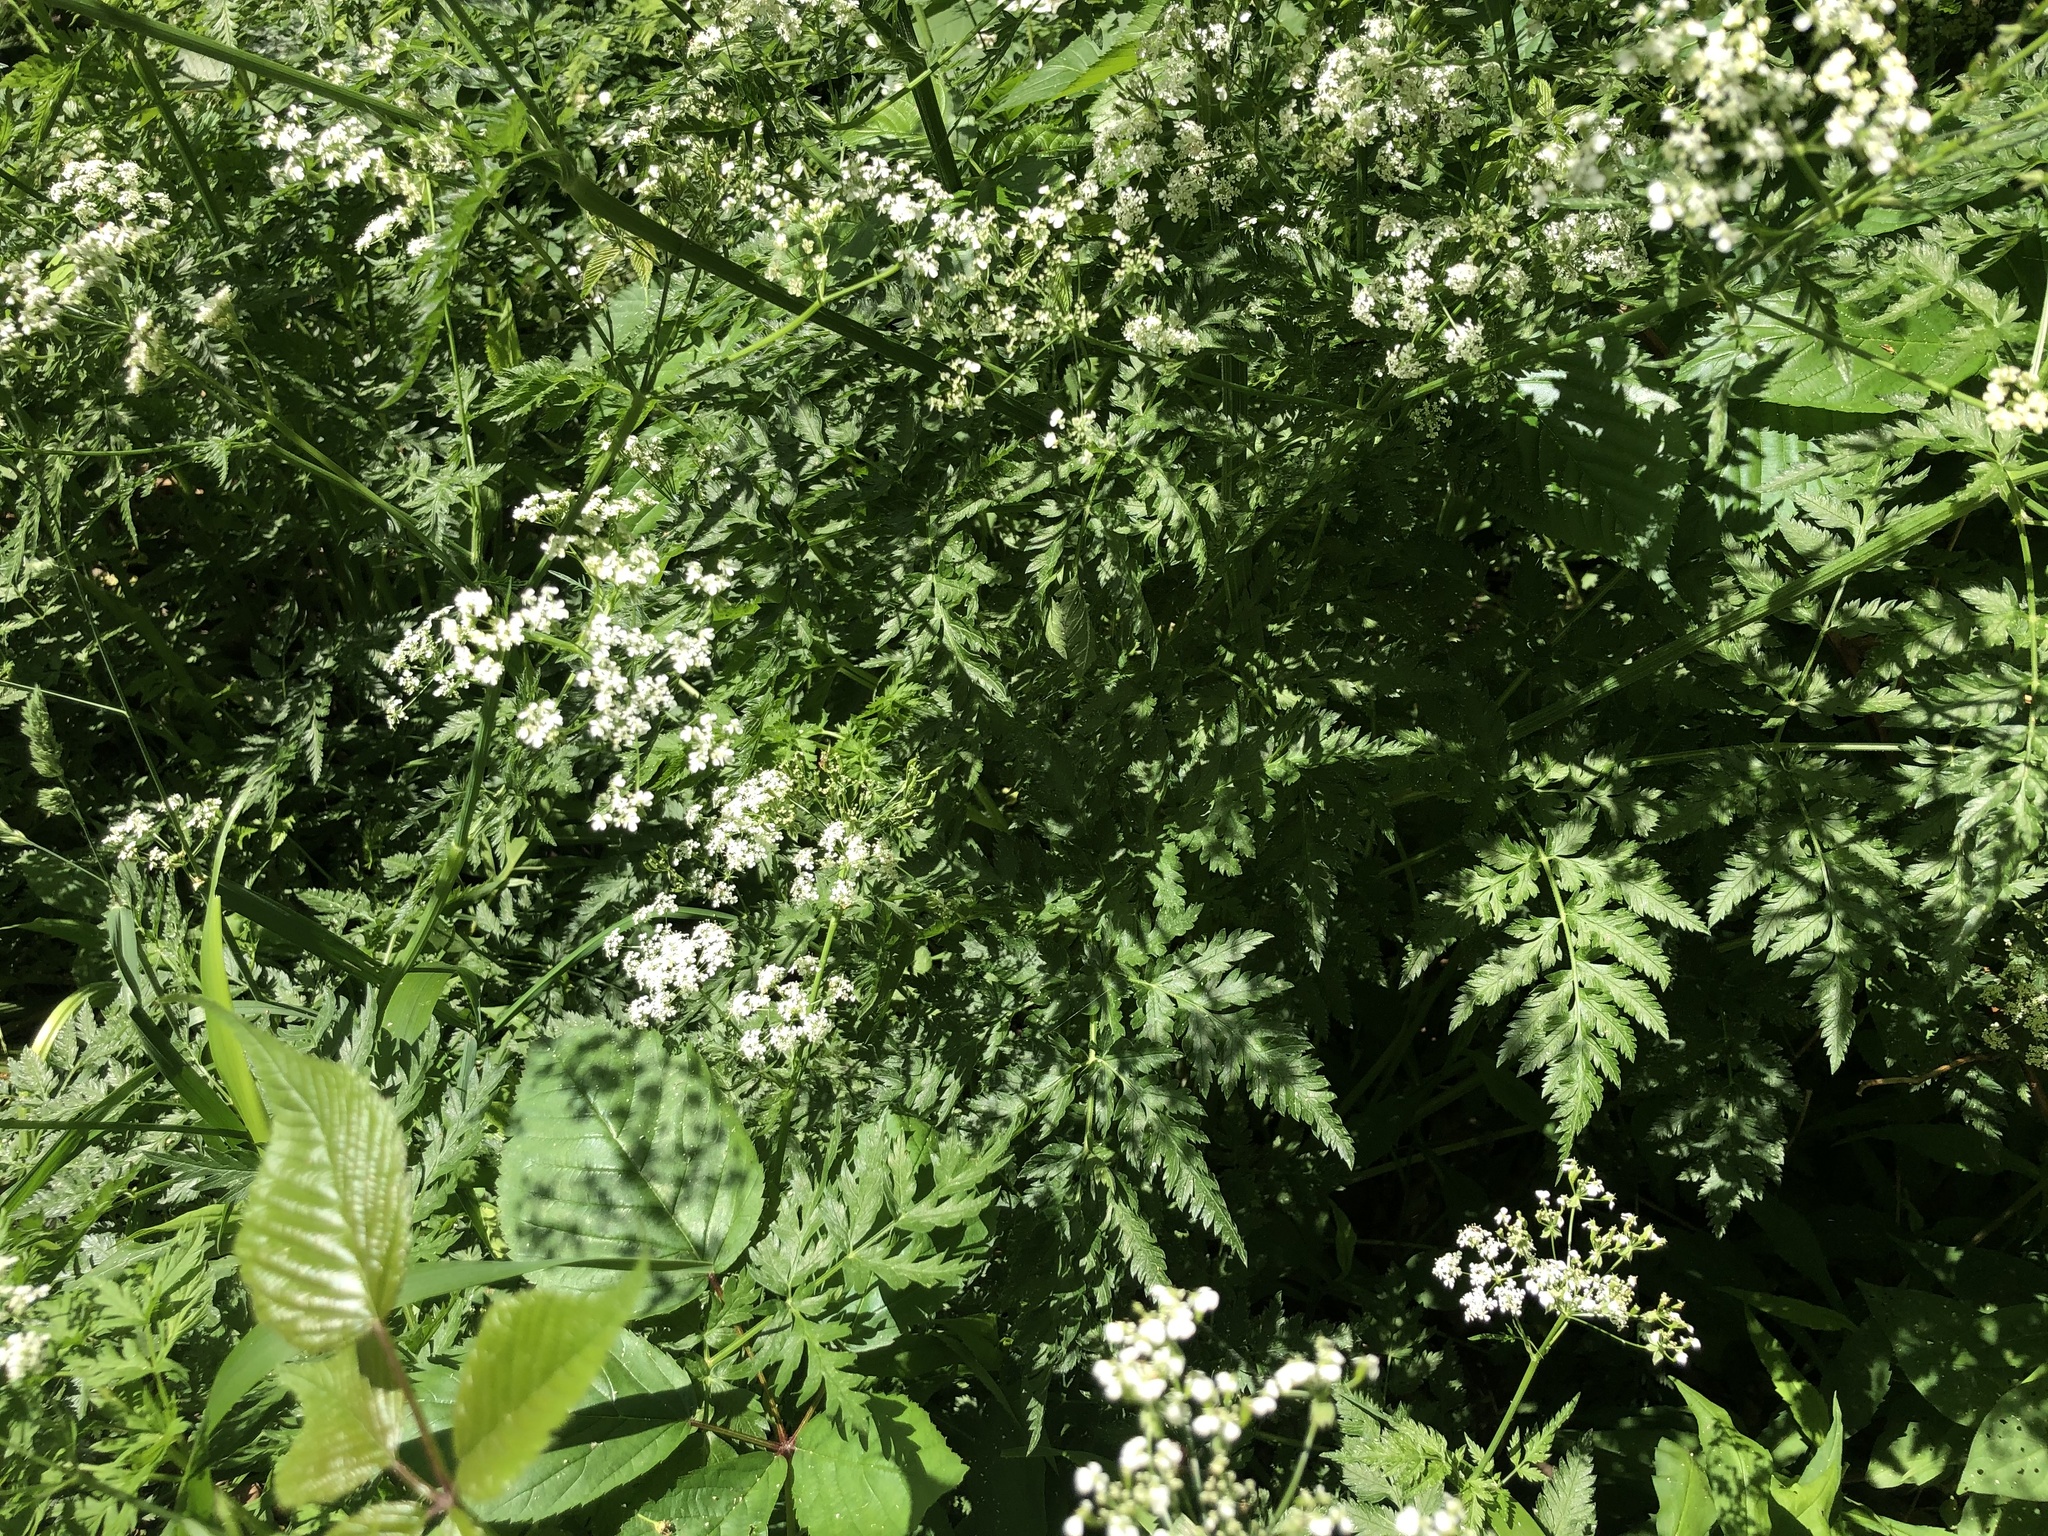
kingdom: Plantae
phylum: Tracheophyta
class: Magnoliopsida
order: Apiales
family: Apiaceae
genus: Anthriscus
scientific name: Anthriscus sylvestris
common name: Cow parsley
